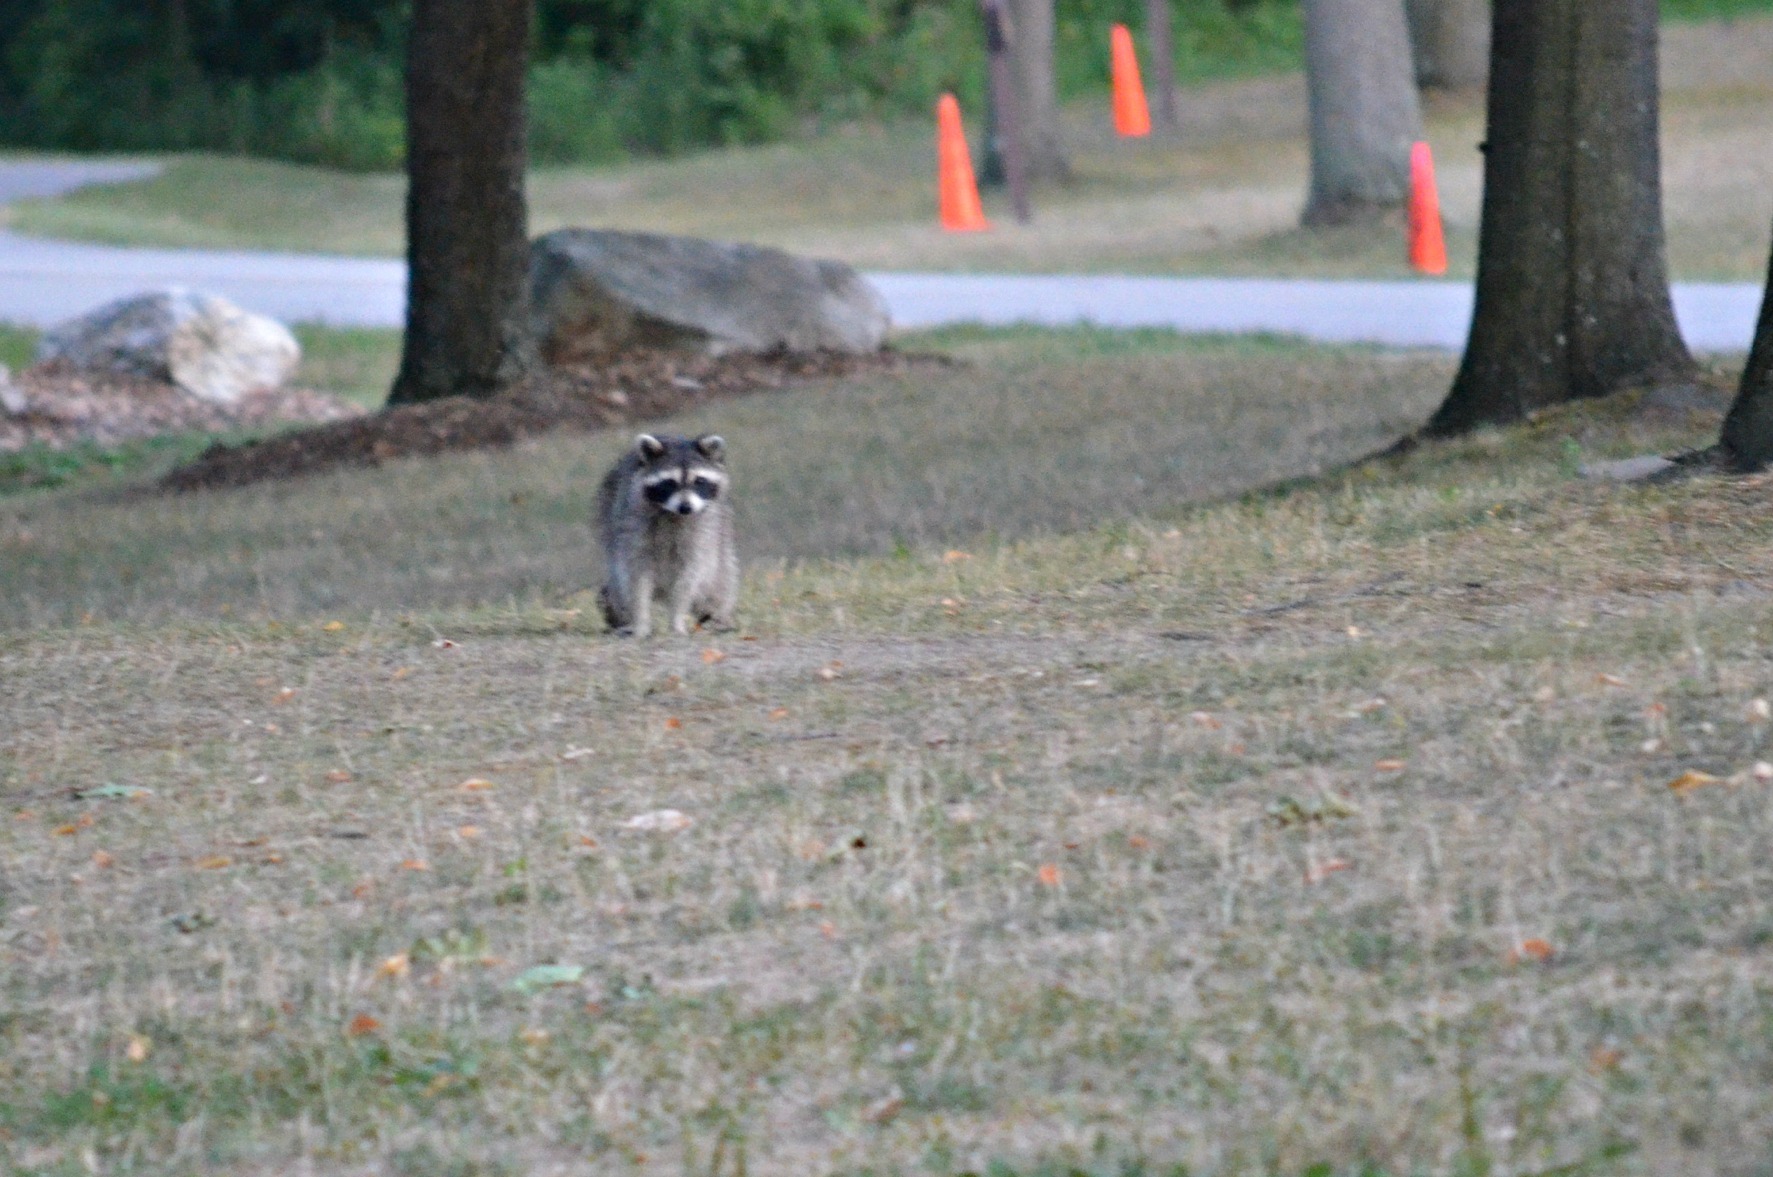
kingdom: Animalia
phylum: Chordata
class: Mammalia
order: Carnivora
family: Procyonidae
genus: Procyon
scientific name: Procyon lotor
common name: Raccoon
